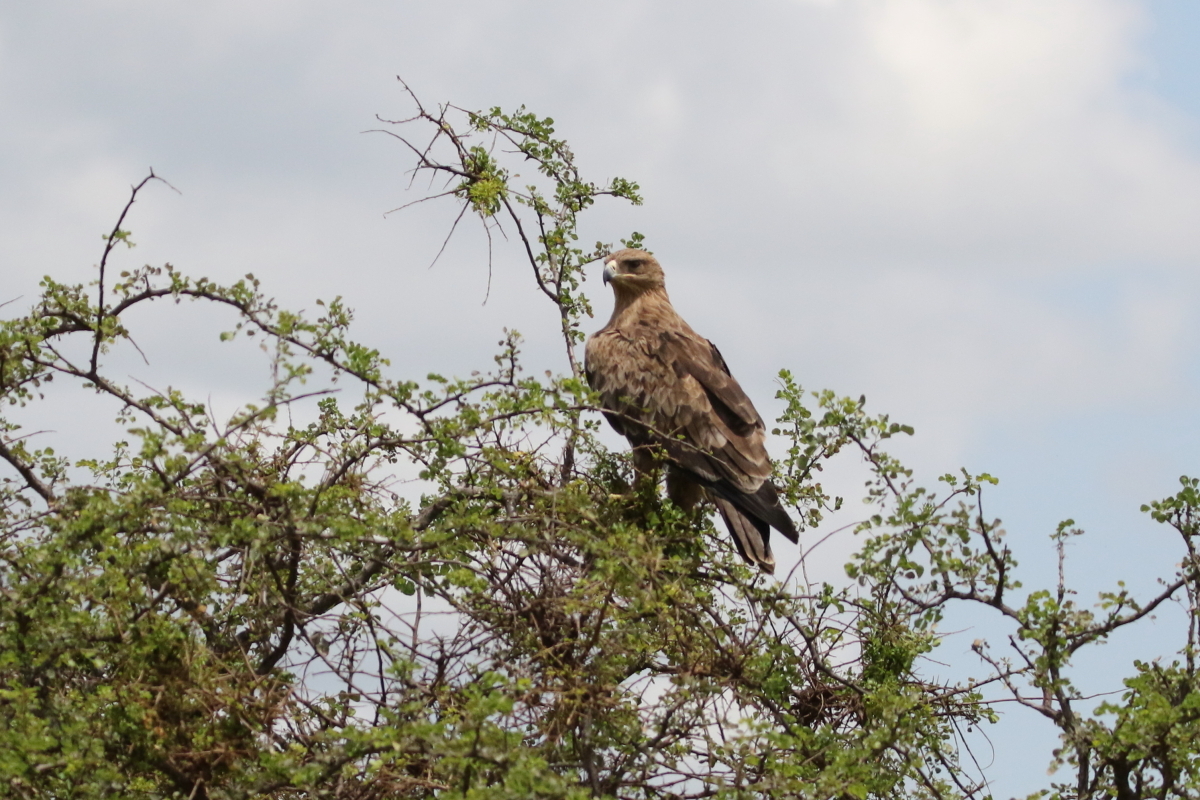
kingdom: Animalia
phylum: Chordata
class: Aves
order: Accipitriformes
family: Accipitridae
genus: Aquila
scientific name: Aquila rapax
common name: Tawny eagle
